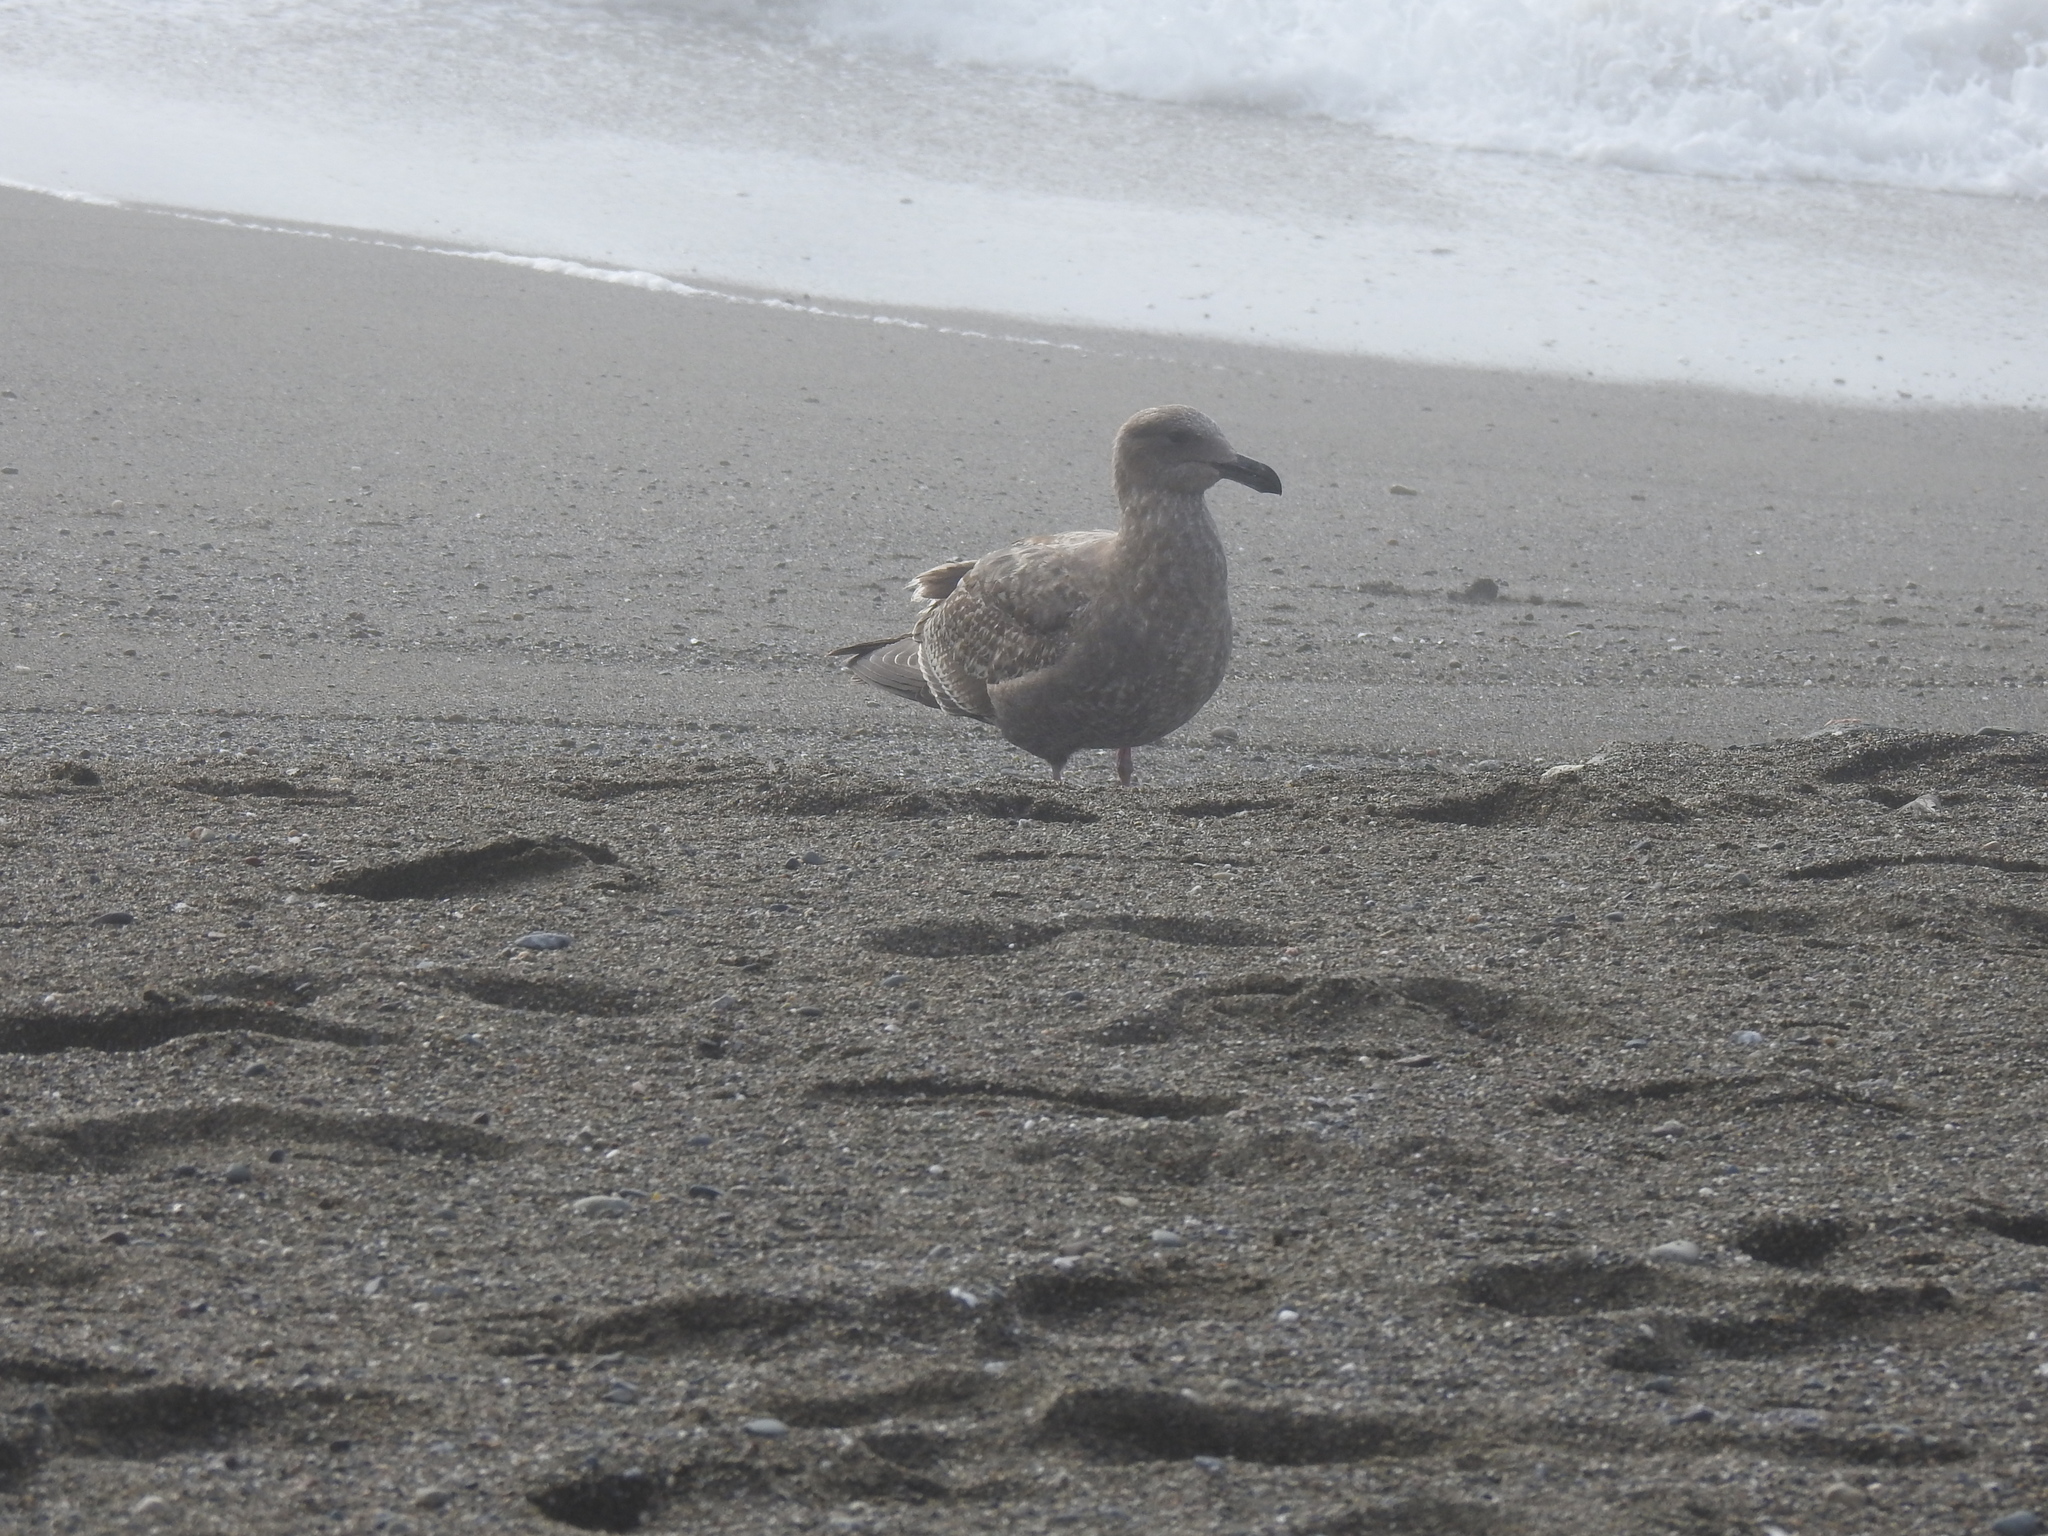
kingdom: Animalia
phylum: Chordata
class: Aves
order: Charadriiformes
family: Laridae
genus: Larus
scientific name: Larus occidentalis
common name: Western gull
